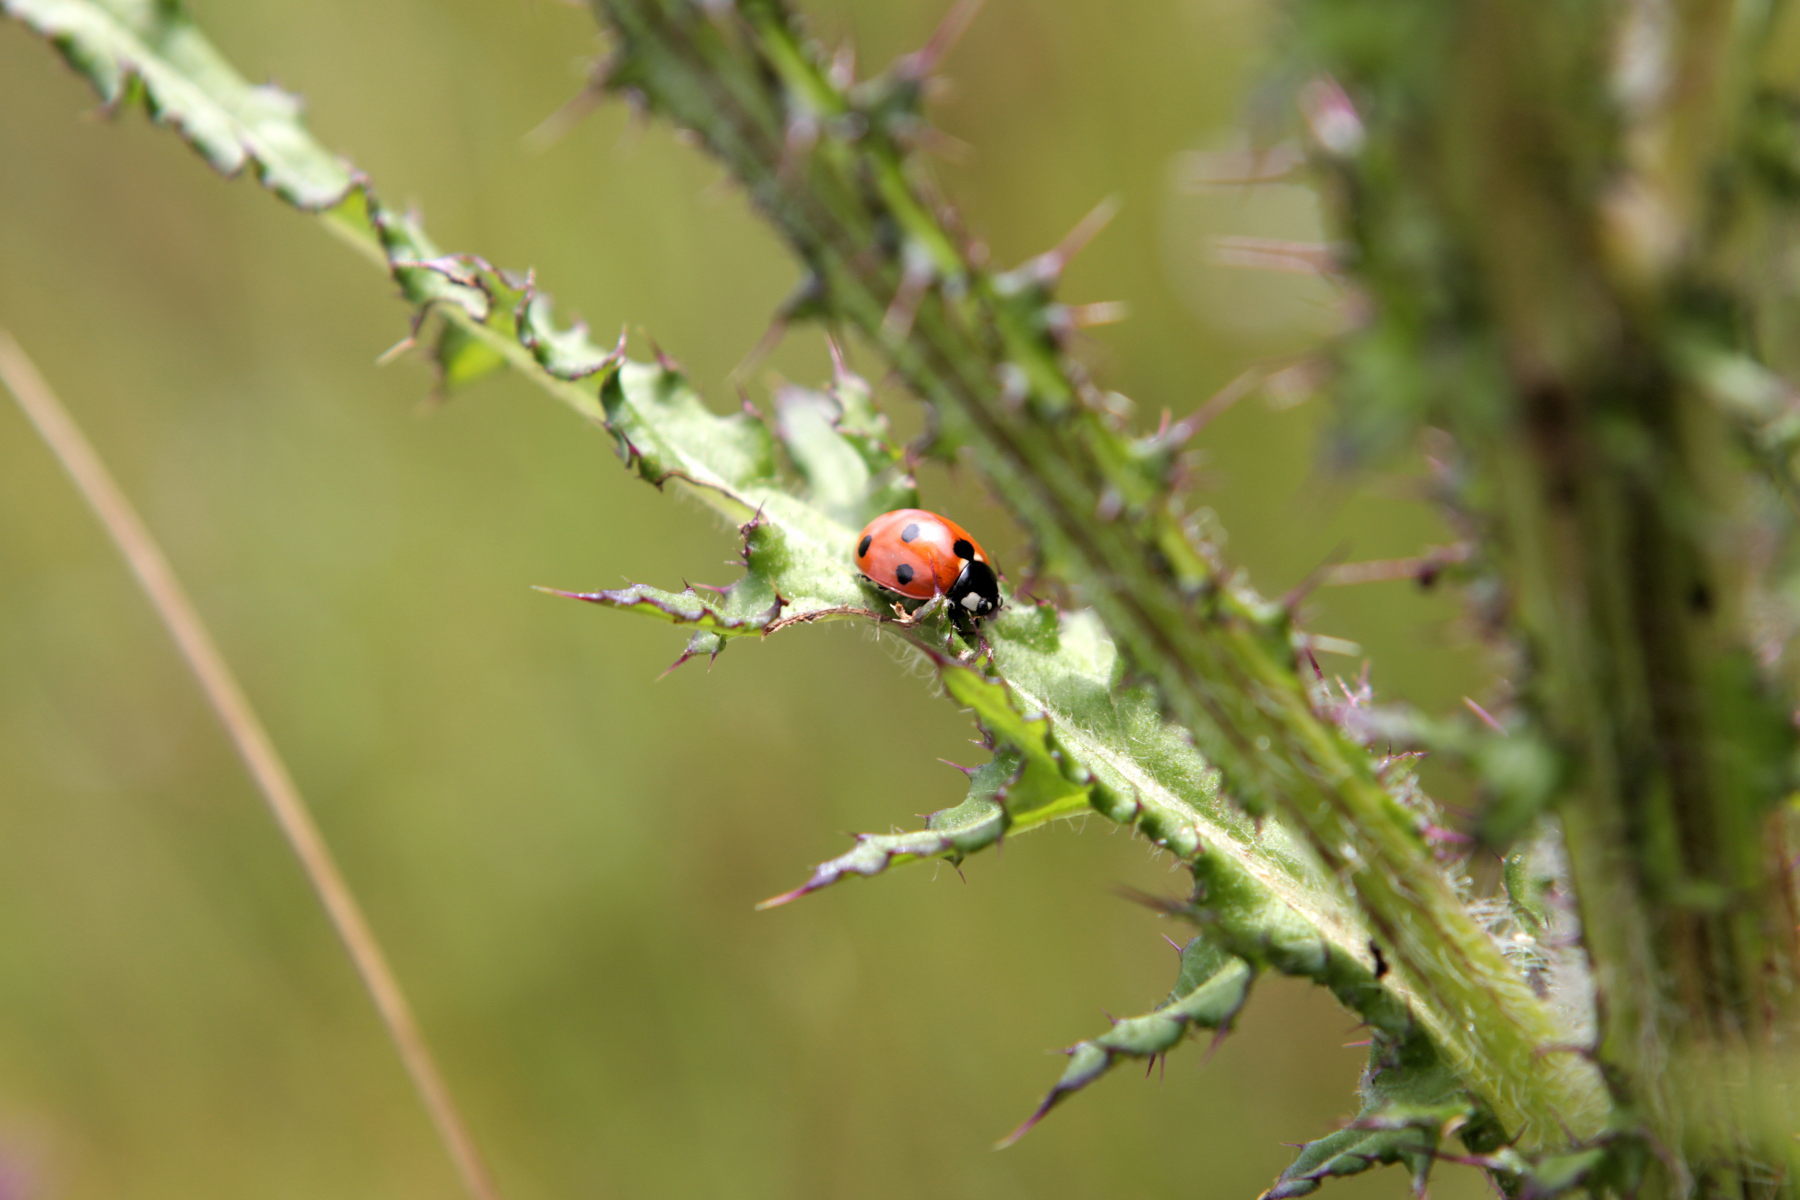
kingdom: Animalia
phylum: Arthropoda
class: Insecta
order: Coleoptera
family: Coccinellidae
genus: Coccinella
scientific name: Coccinella septempunctata
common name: Sevenspotted lady beetle
